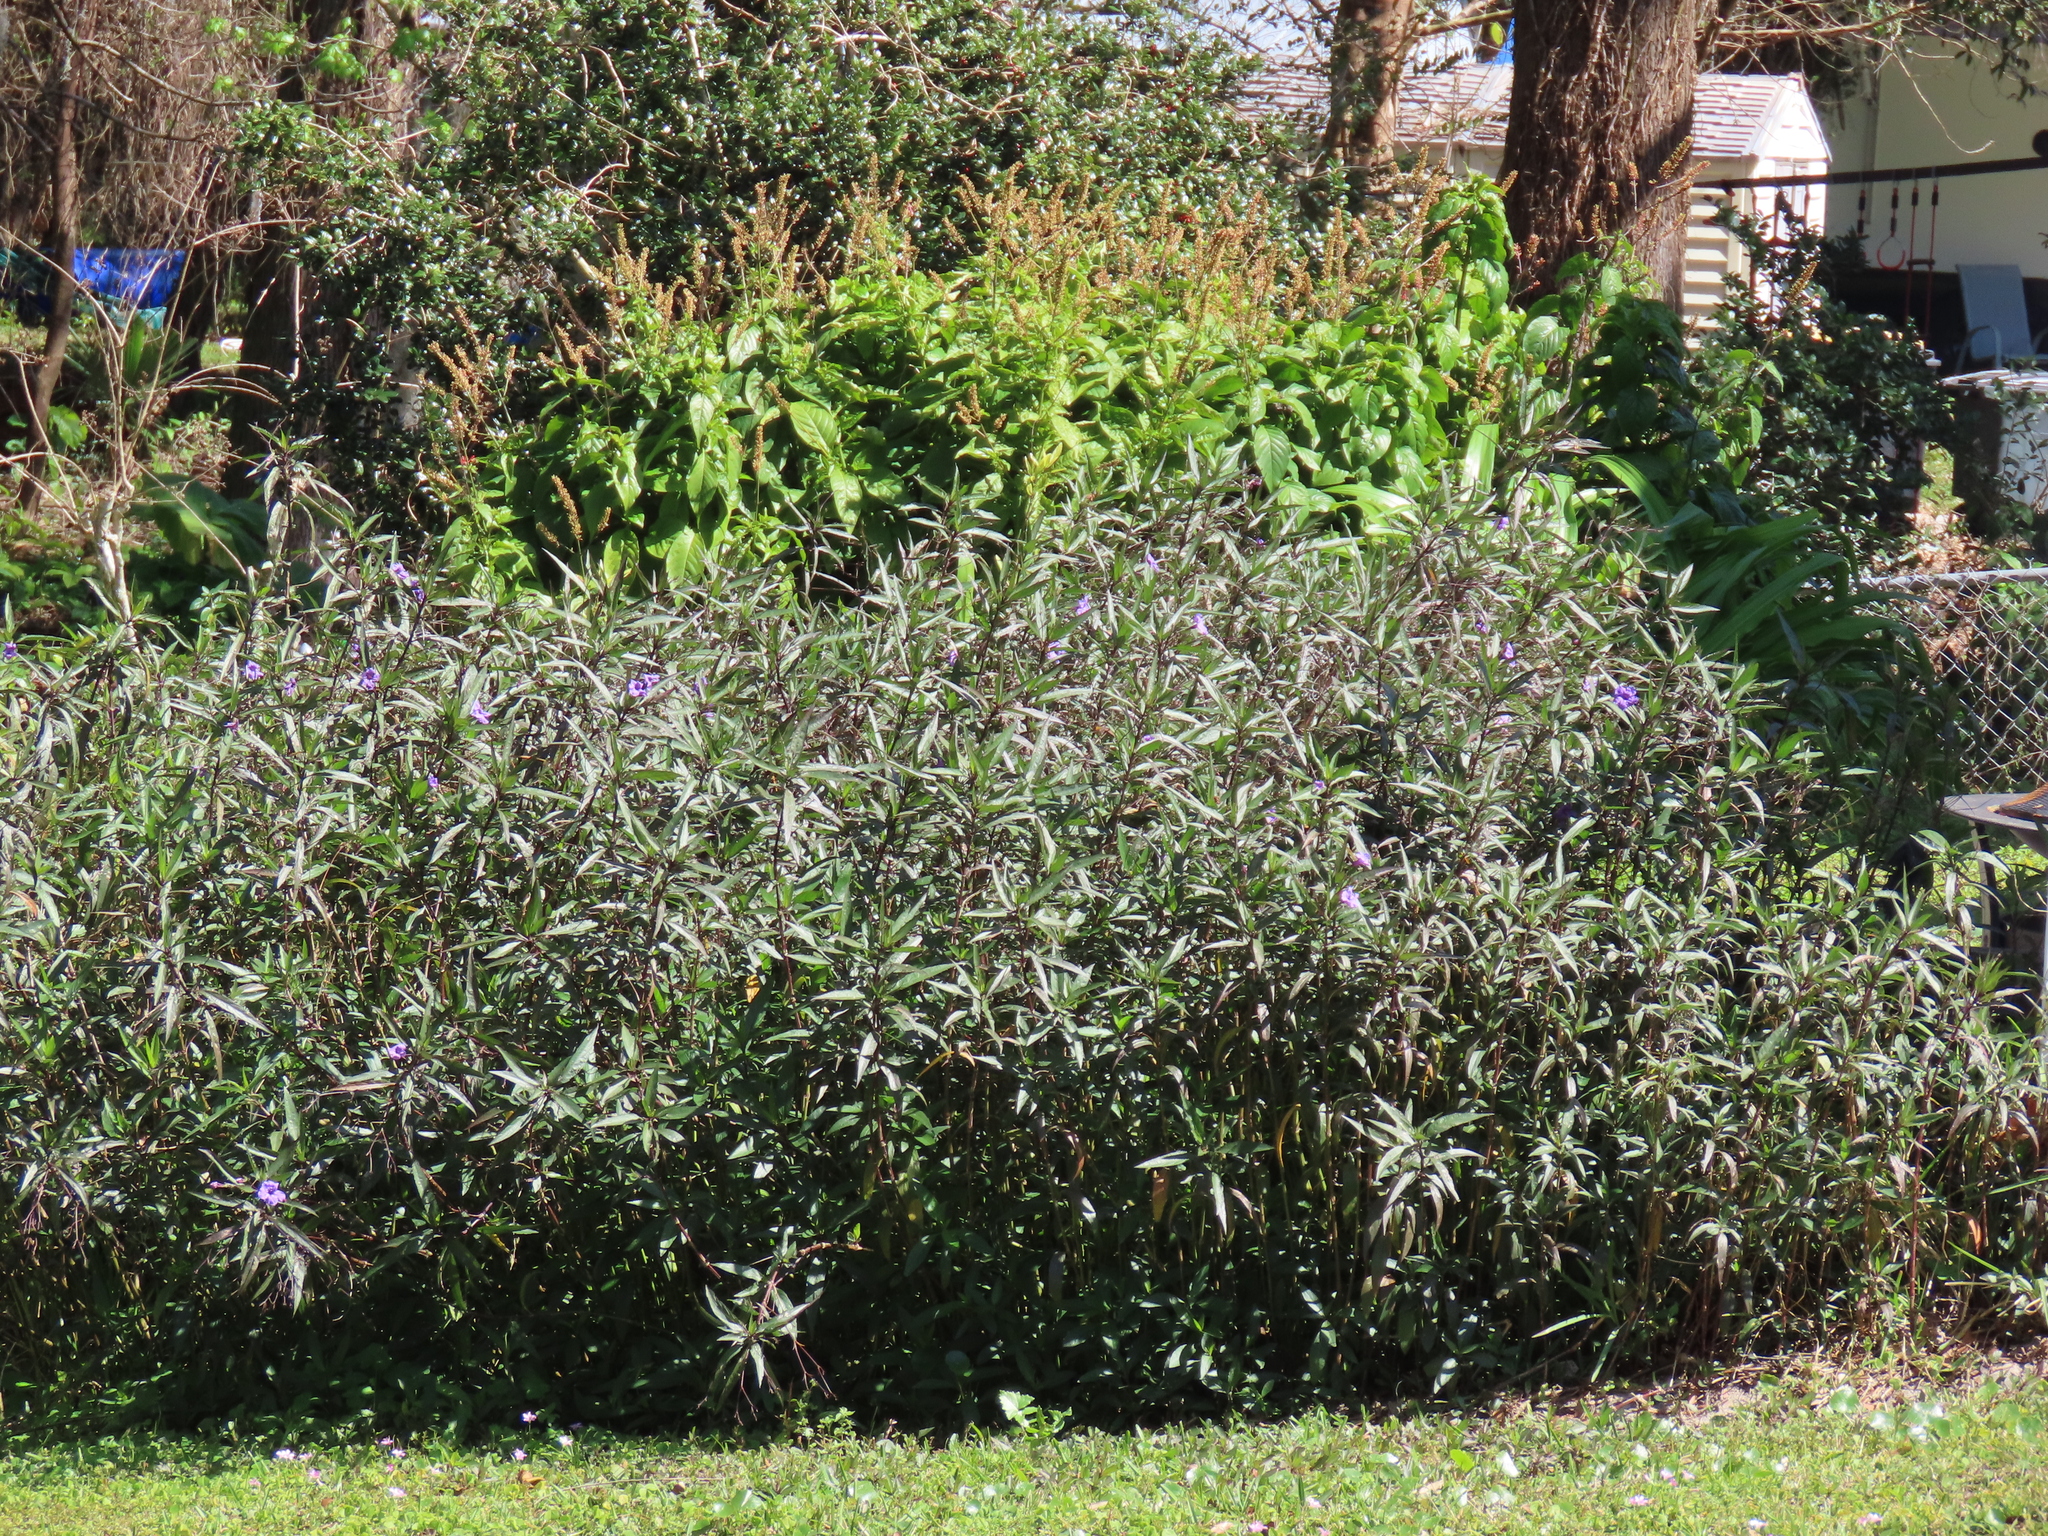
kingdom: Plantae
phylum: Tracheophyta
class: Magnoliopsida
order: Lamiales
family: Acanthaceae
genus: Ruellia
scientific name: Ruellia simplex
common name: Softseed wild petunia
